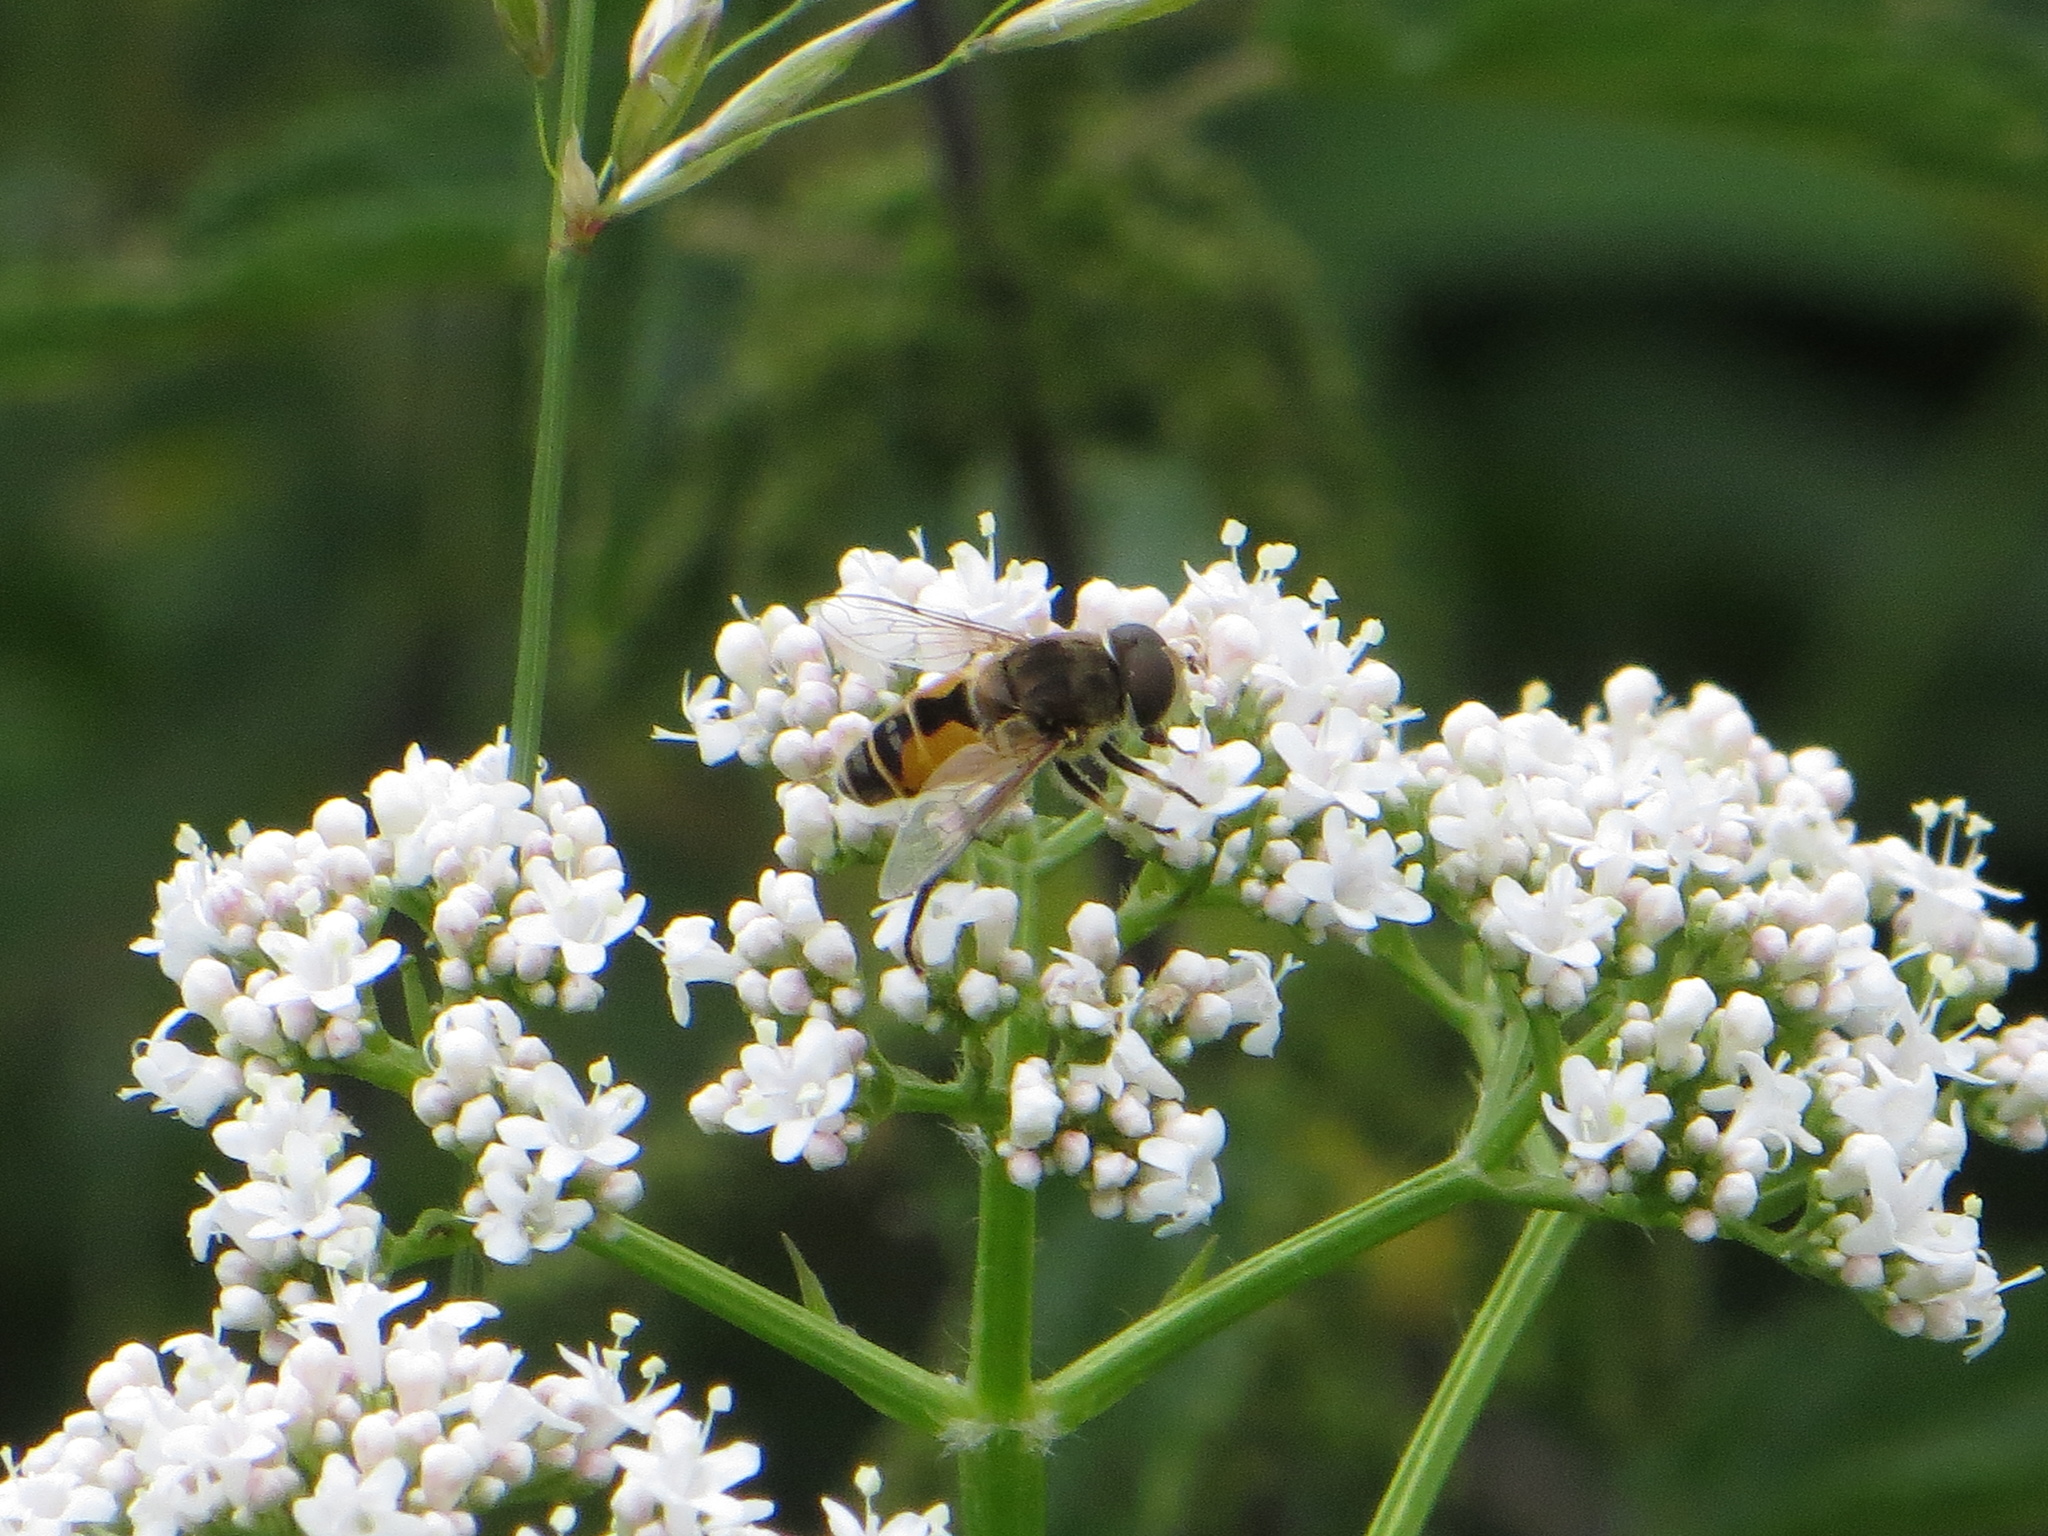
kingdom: Animalia
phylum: Arthropoda
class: Insecta
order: Diptera
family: Syrphidae
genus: Eristalis
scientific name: Eristalis arbustorum
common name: Hover fly
